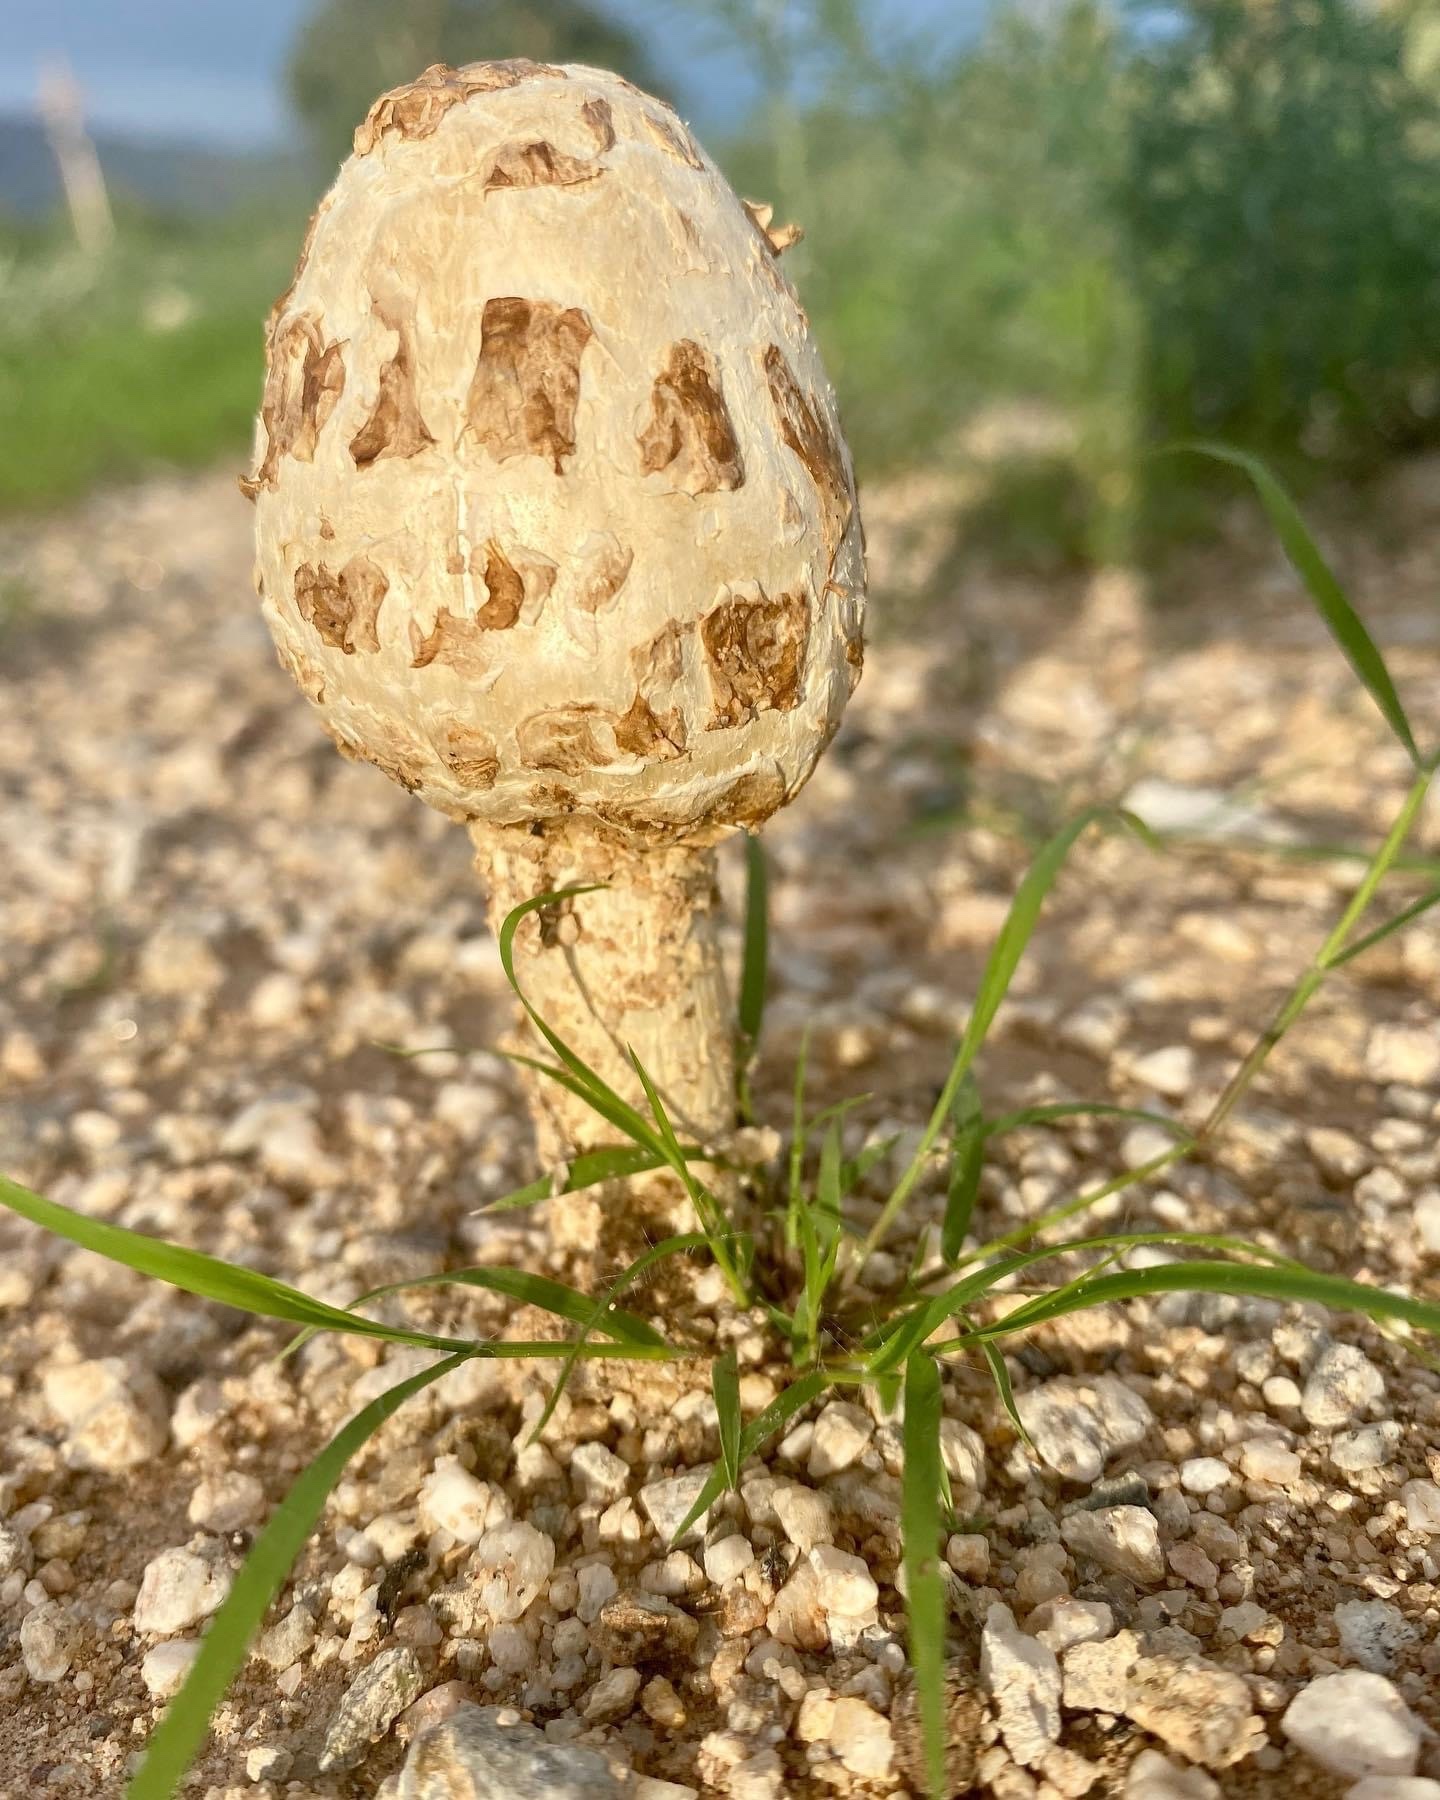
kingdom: Fungi
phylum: Basidiomycota
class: Agaricomycetes
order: Agaricales
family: Agaricaceae
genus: Podaxis
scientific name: Podaxis pistillaris
